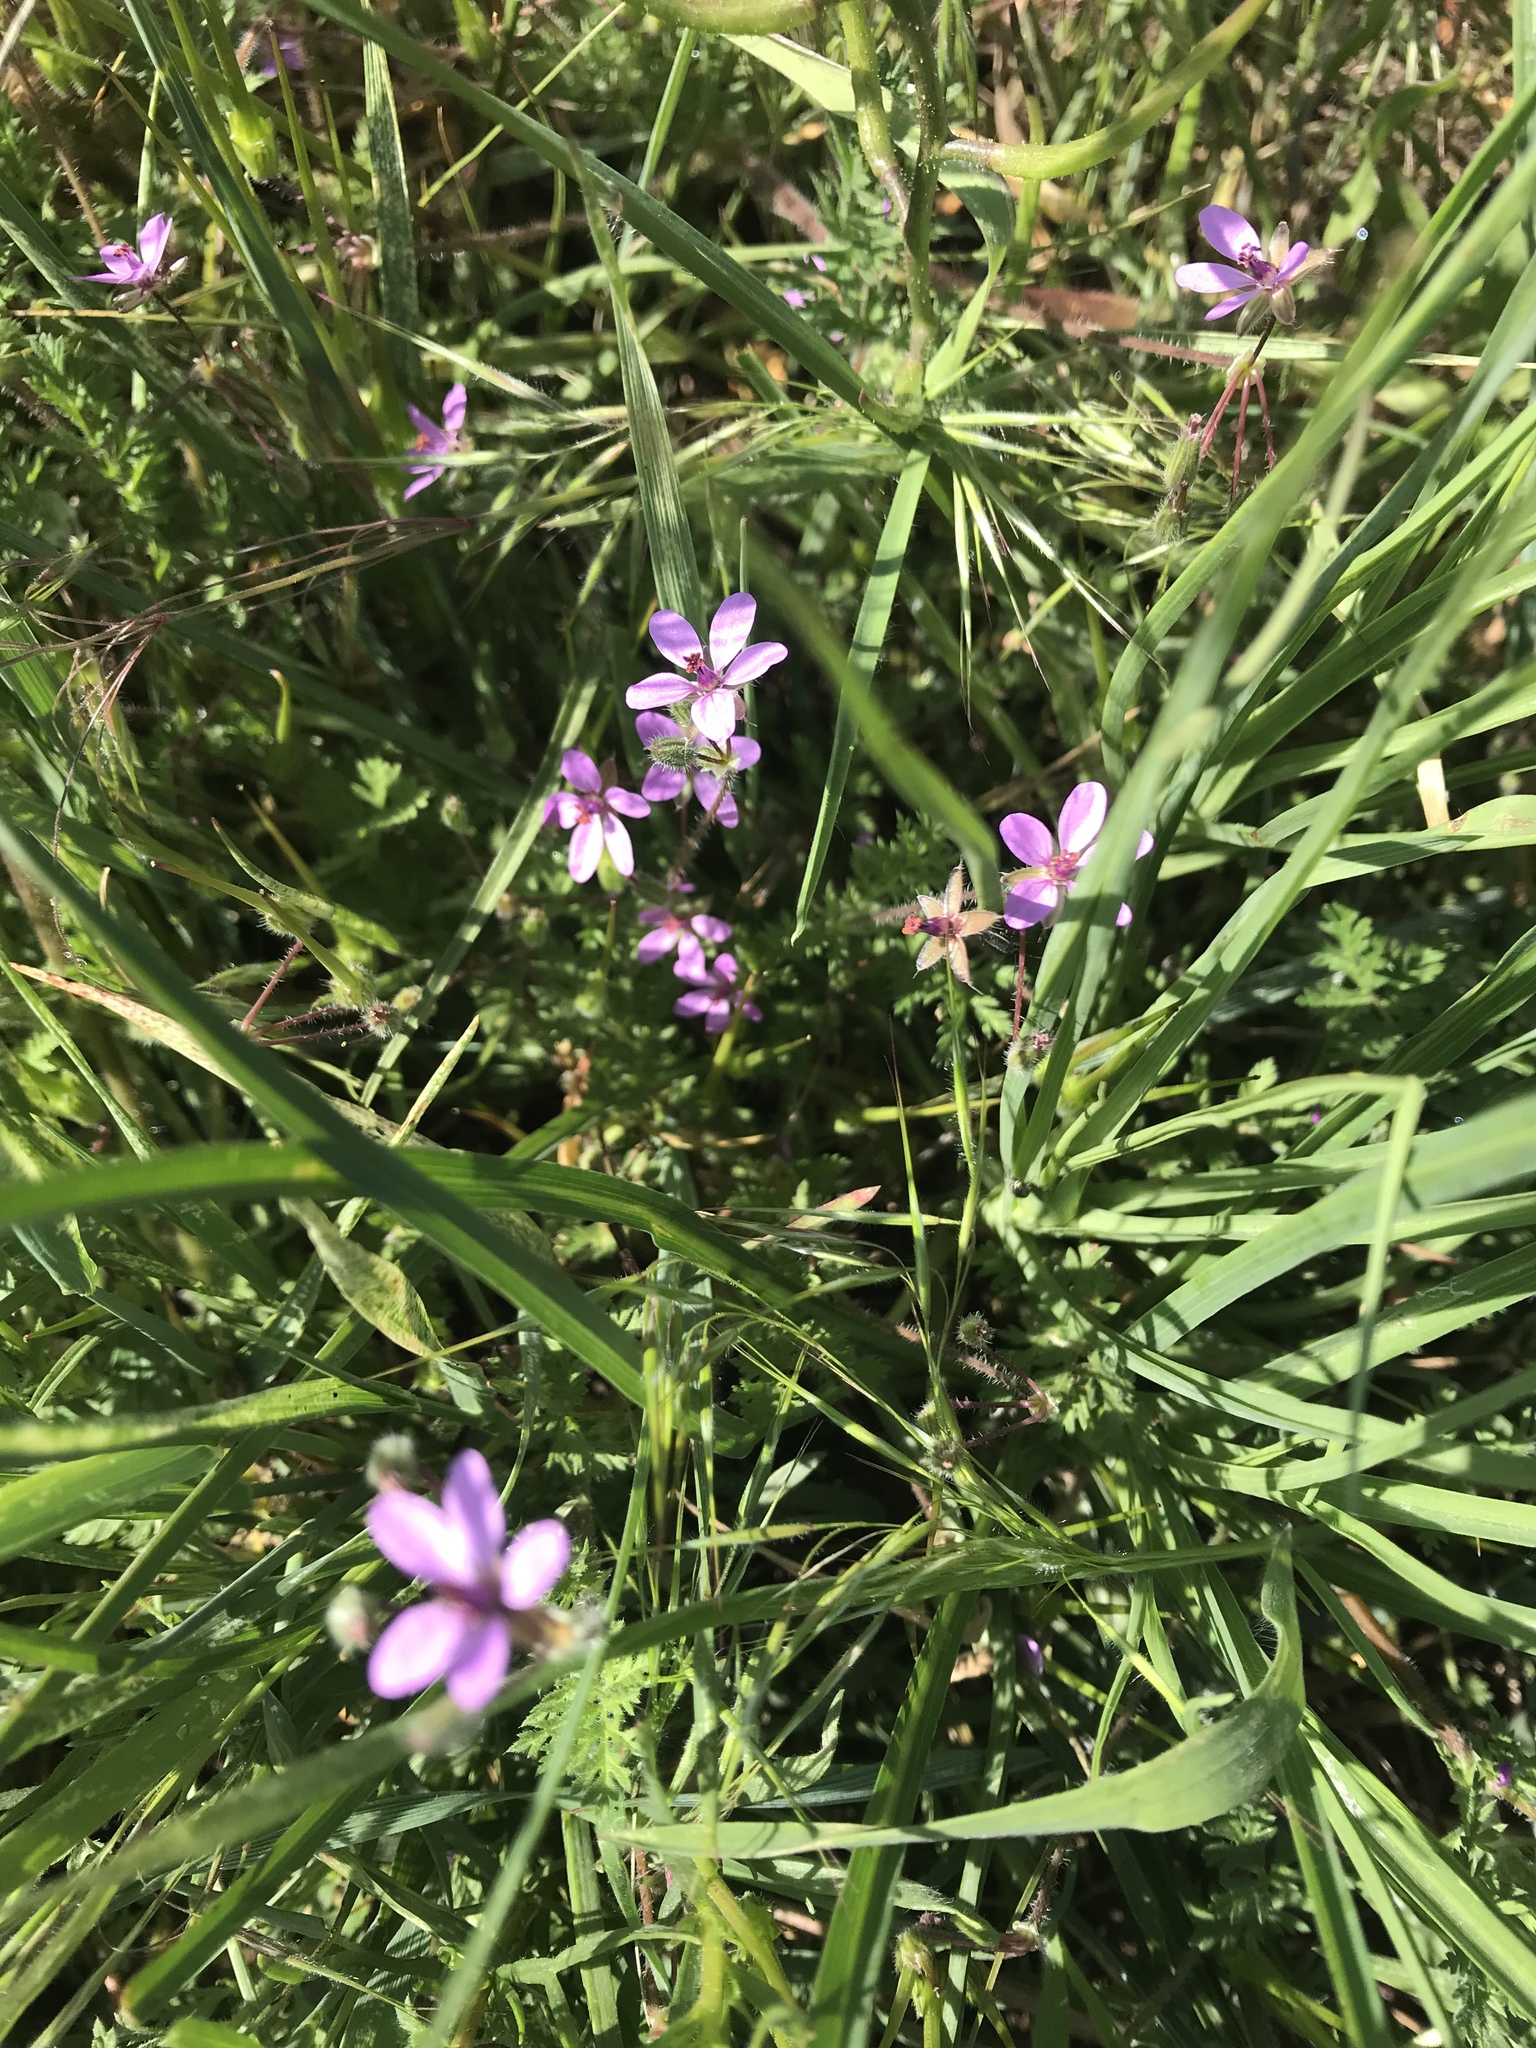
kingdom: Plantae
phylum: Tracheophyta
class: Magnoliopsida
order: Geraniales
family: Geraniaceae
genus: Erodium
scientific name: Erodium cicutarium
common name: Common stork's-bill
